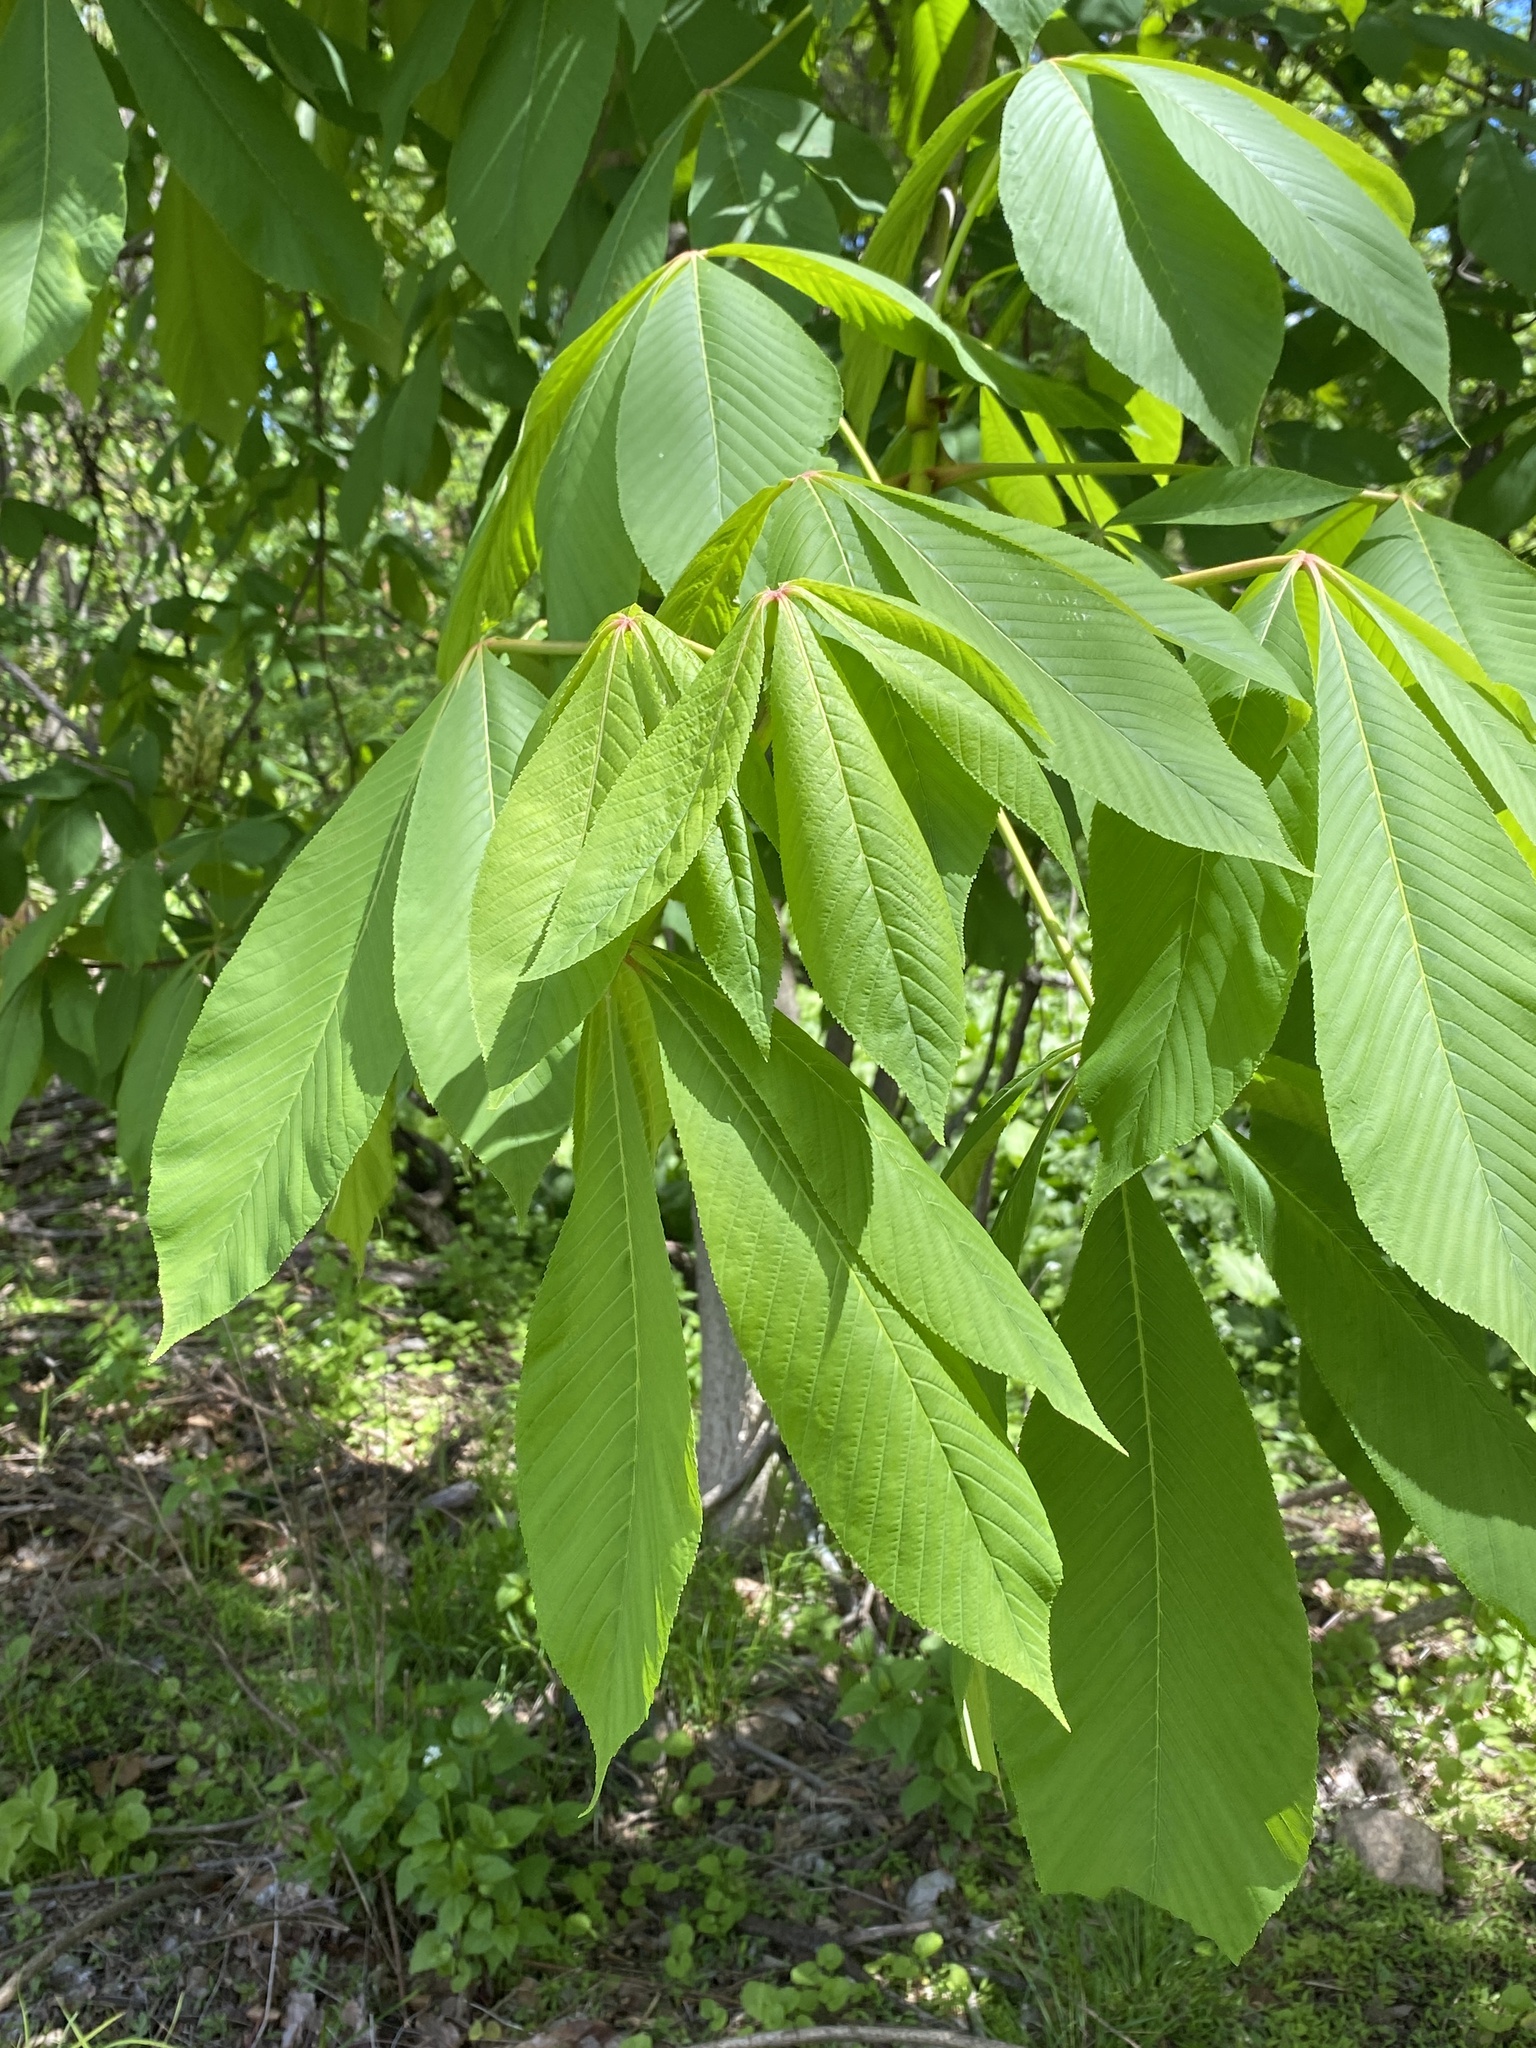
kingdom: Plantae
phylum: Tracheophyta
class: Magnoliopsida
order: Sapindales
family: Sapindaceae
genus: Aesculus
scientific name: Aesculus flava
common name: Yellow buckeye
